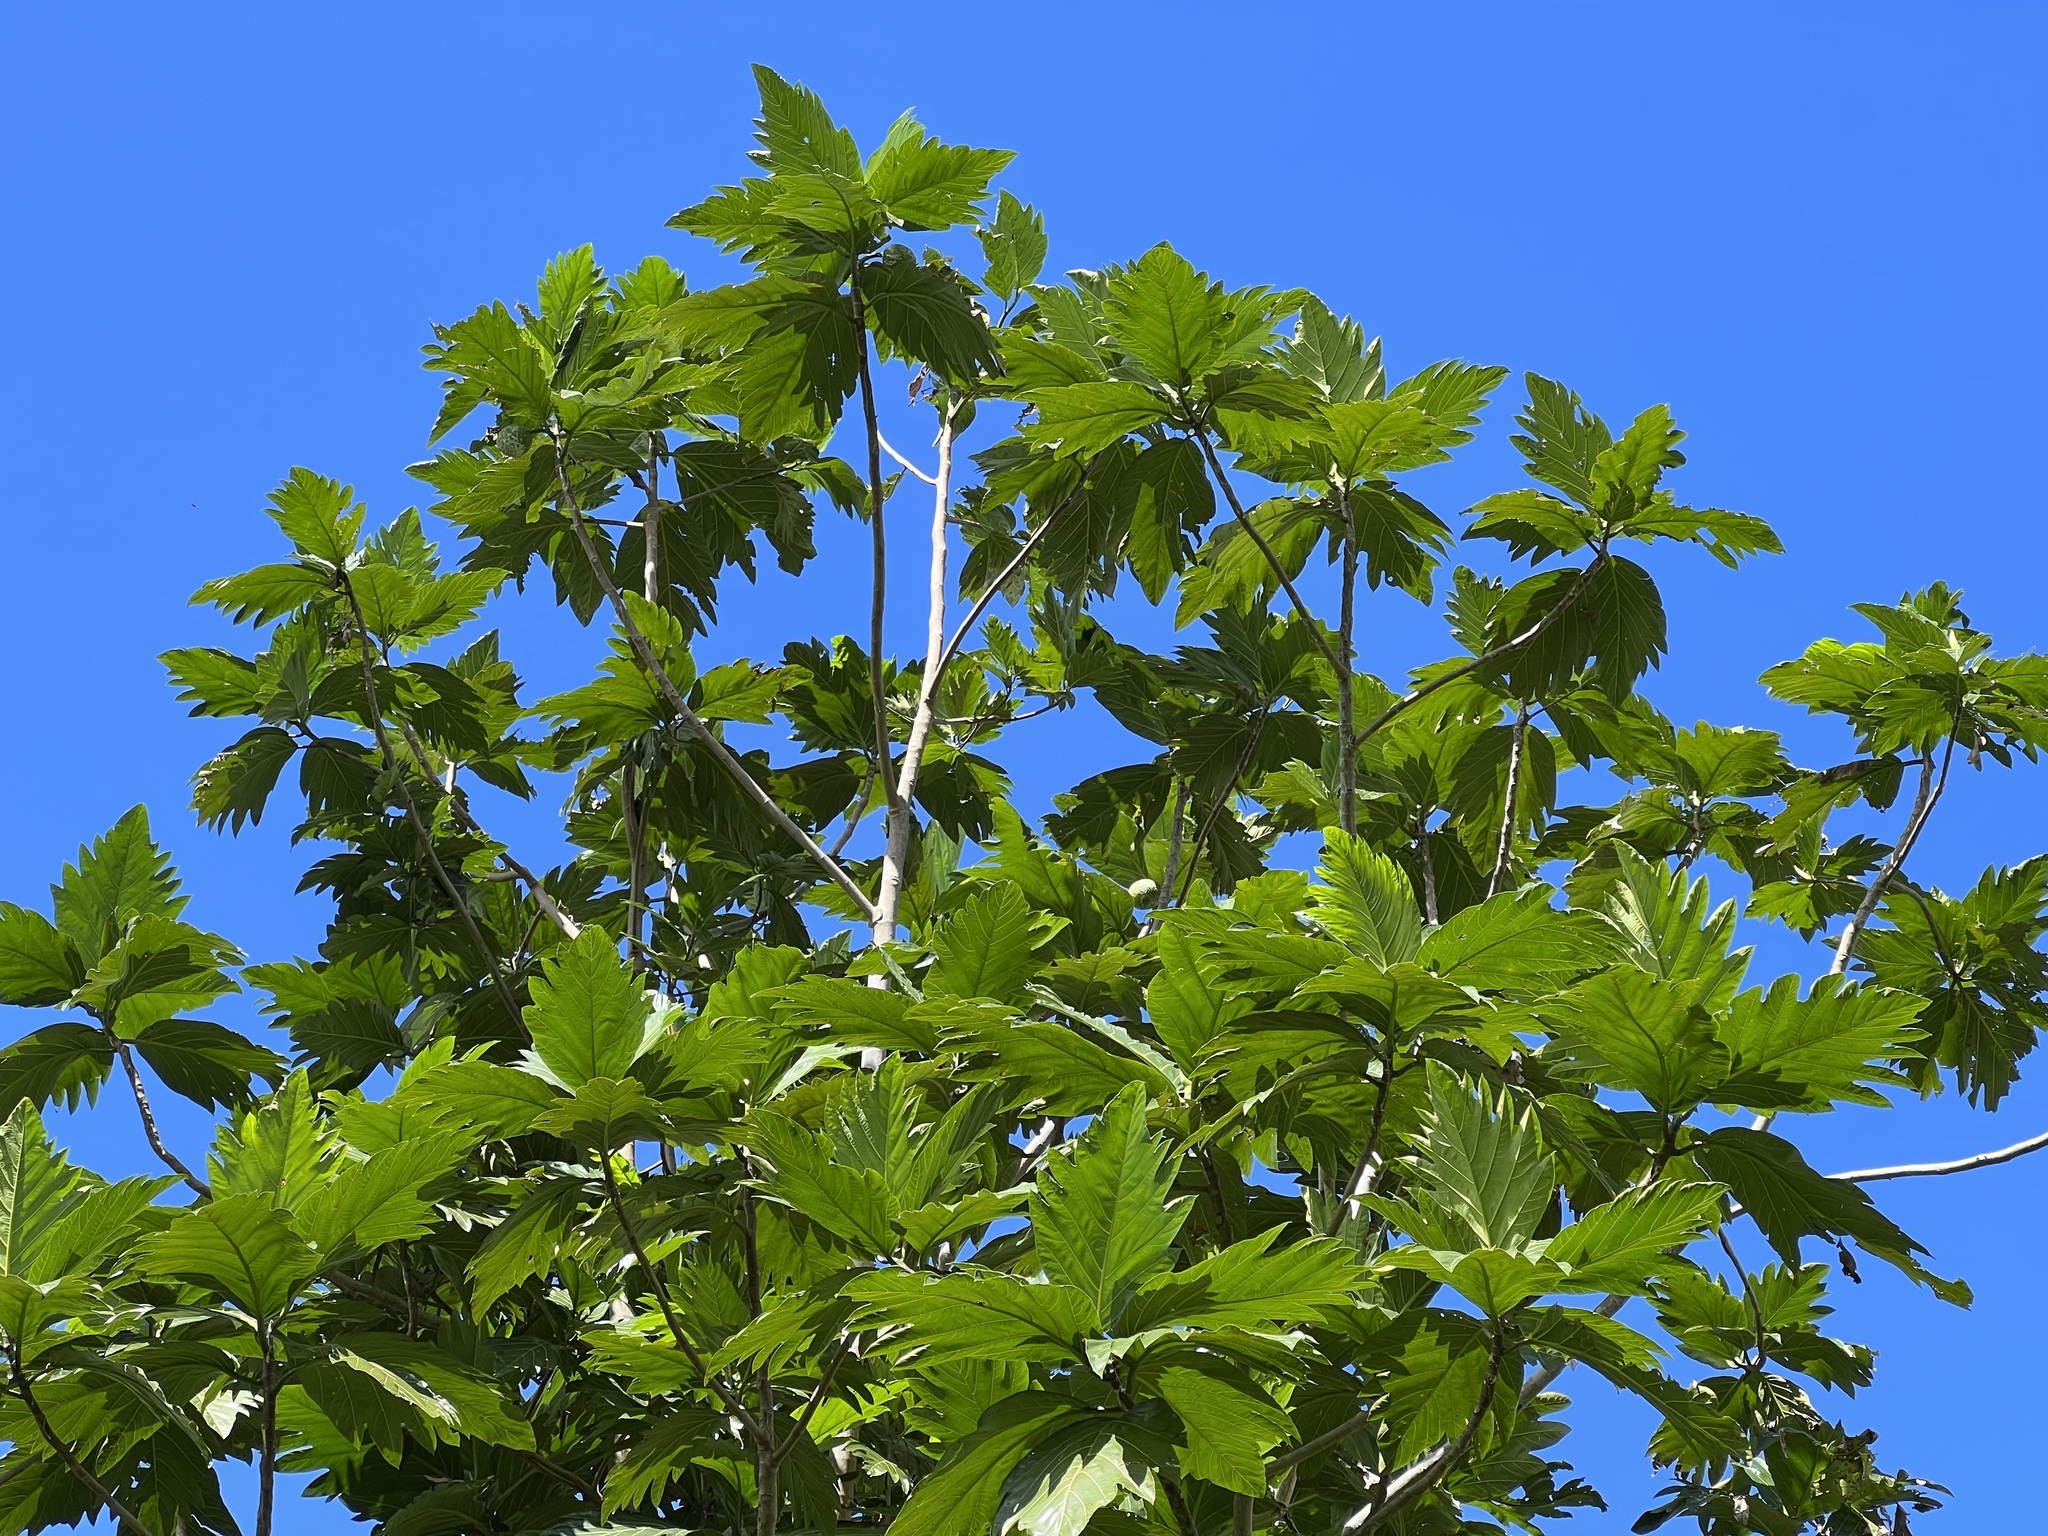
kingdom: Plantae
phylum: Tracheophyta
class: Magnoliopsida
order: Rosales
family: Moraceae
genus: Artocarpus
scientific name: Artocarpus altilis
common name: Breadfruit
